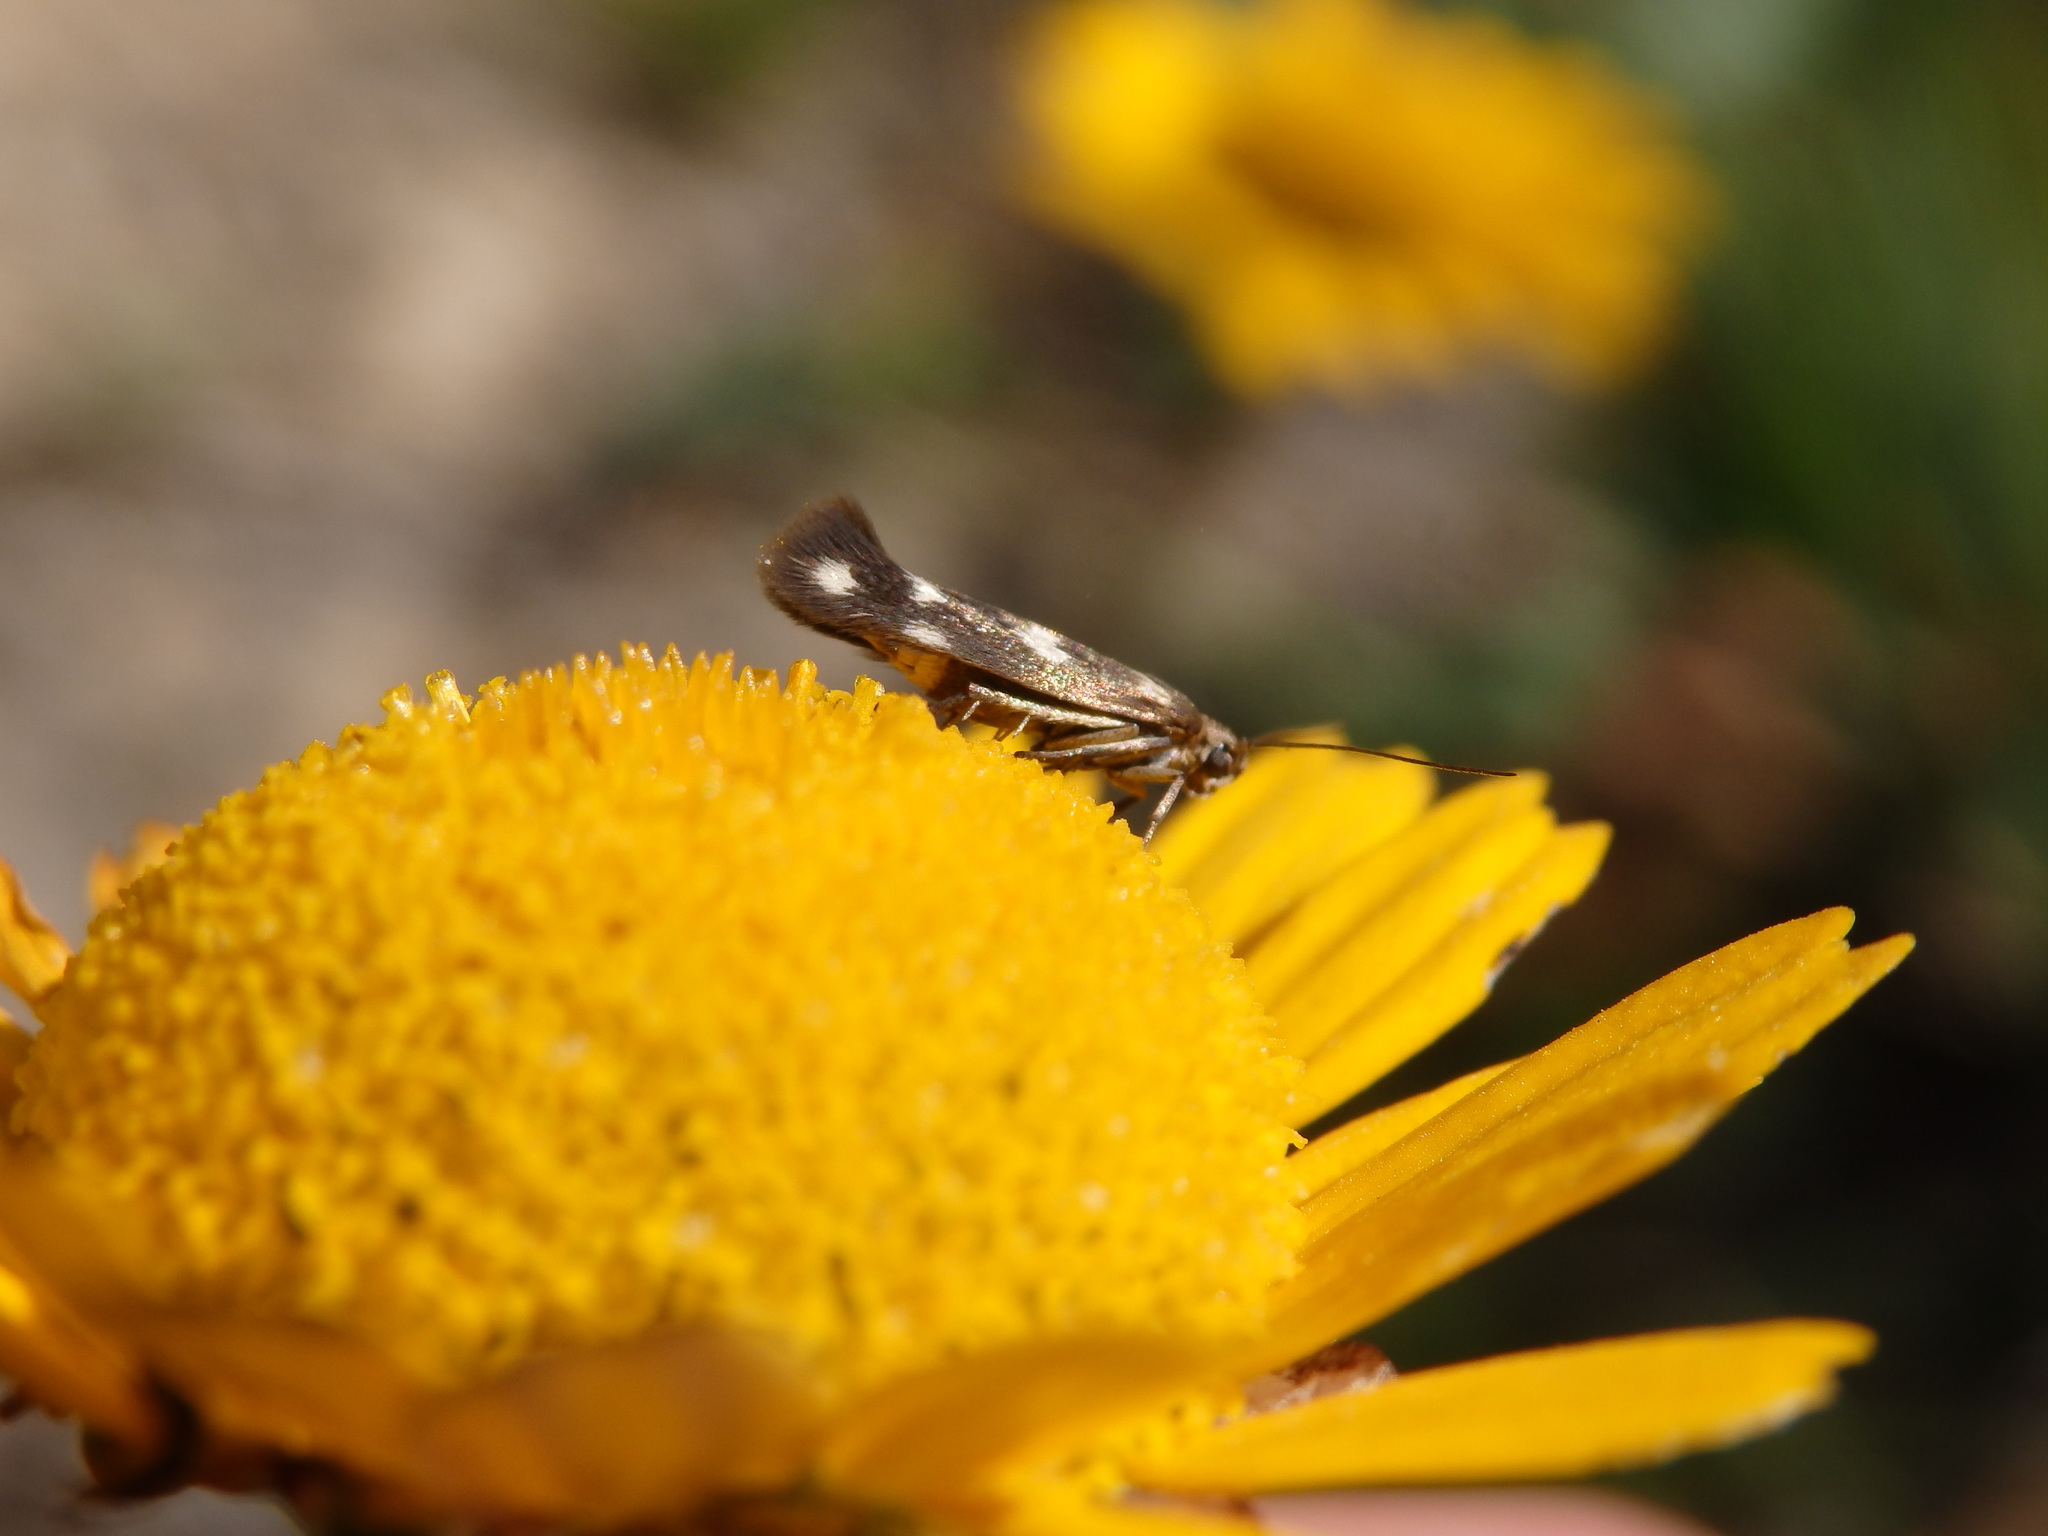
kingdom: Animalia
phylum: Arthropoda
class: Insecta
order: Lepidoptera
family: Scythrididae
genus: Scythris
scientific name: Scythris scopolella
